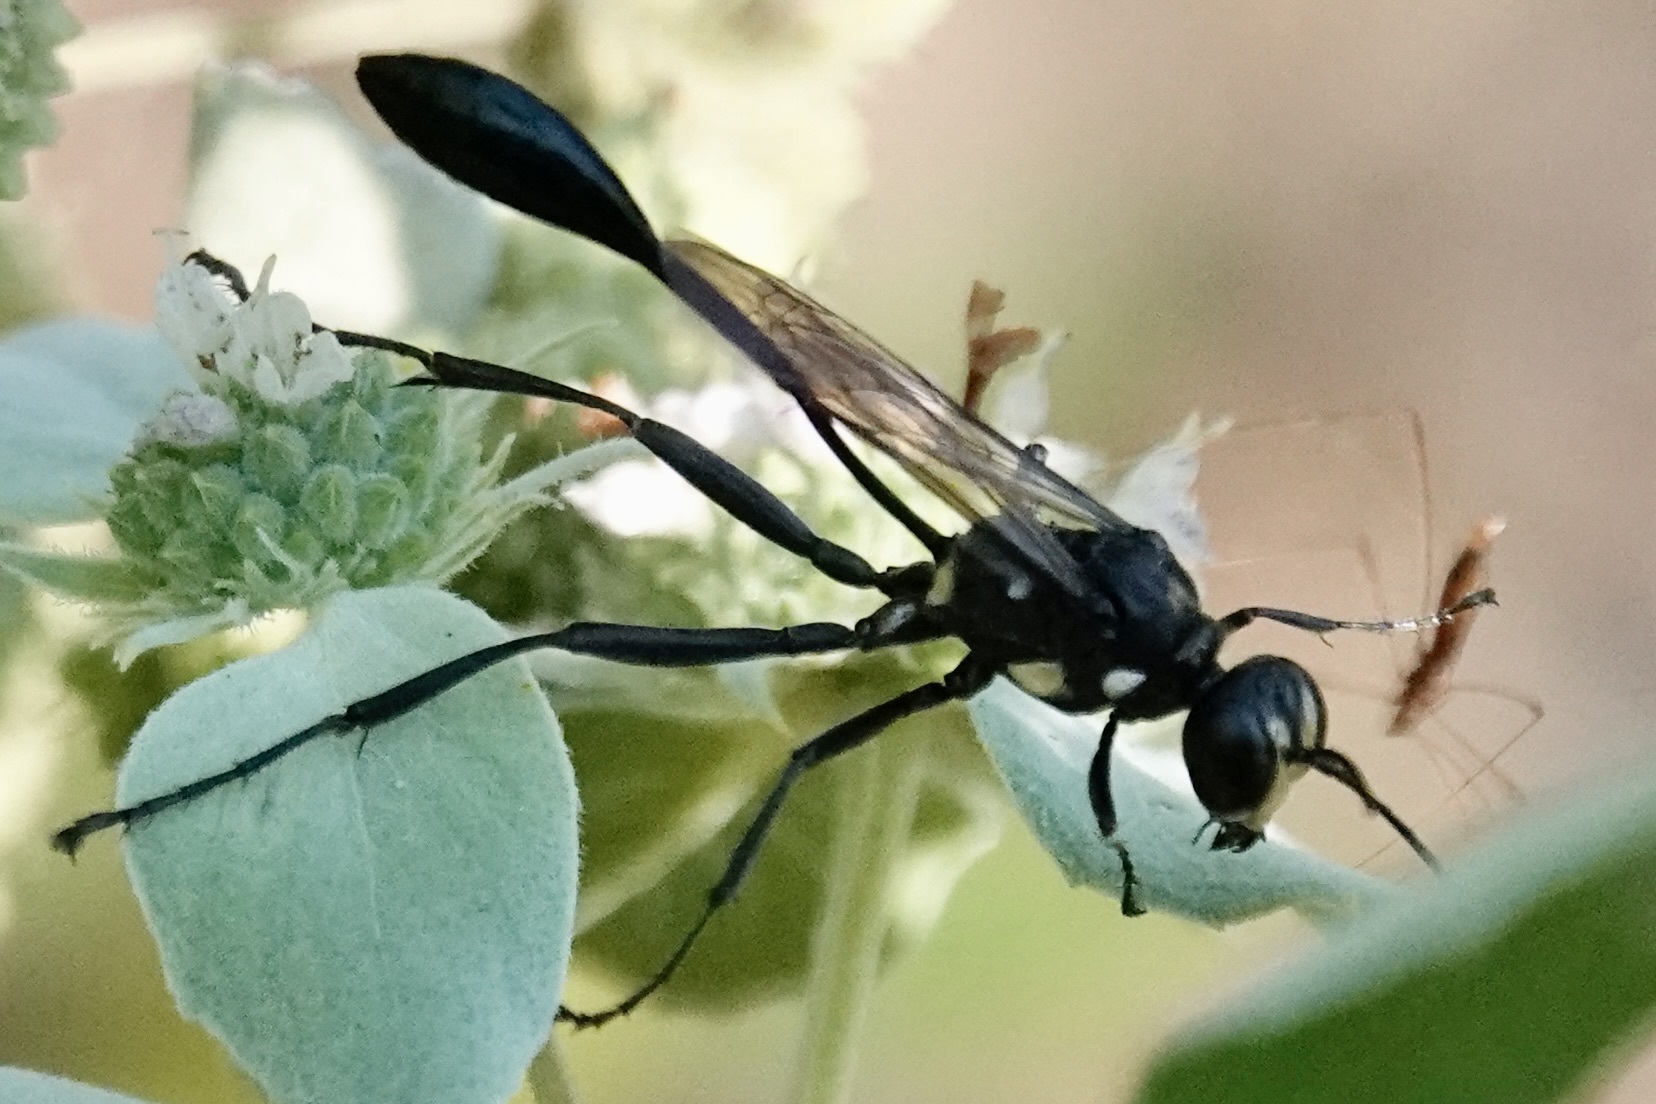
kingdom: Animalia
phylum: Arthropoda
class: Insecta
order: Hymenoptera
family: Sphecidae
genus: Eremnophila
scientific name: Eremnophila aureonotata
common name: Gold-marked thread-waisted wasp
